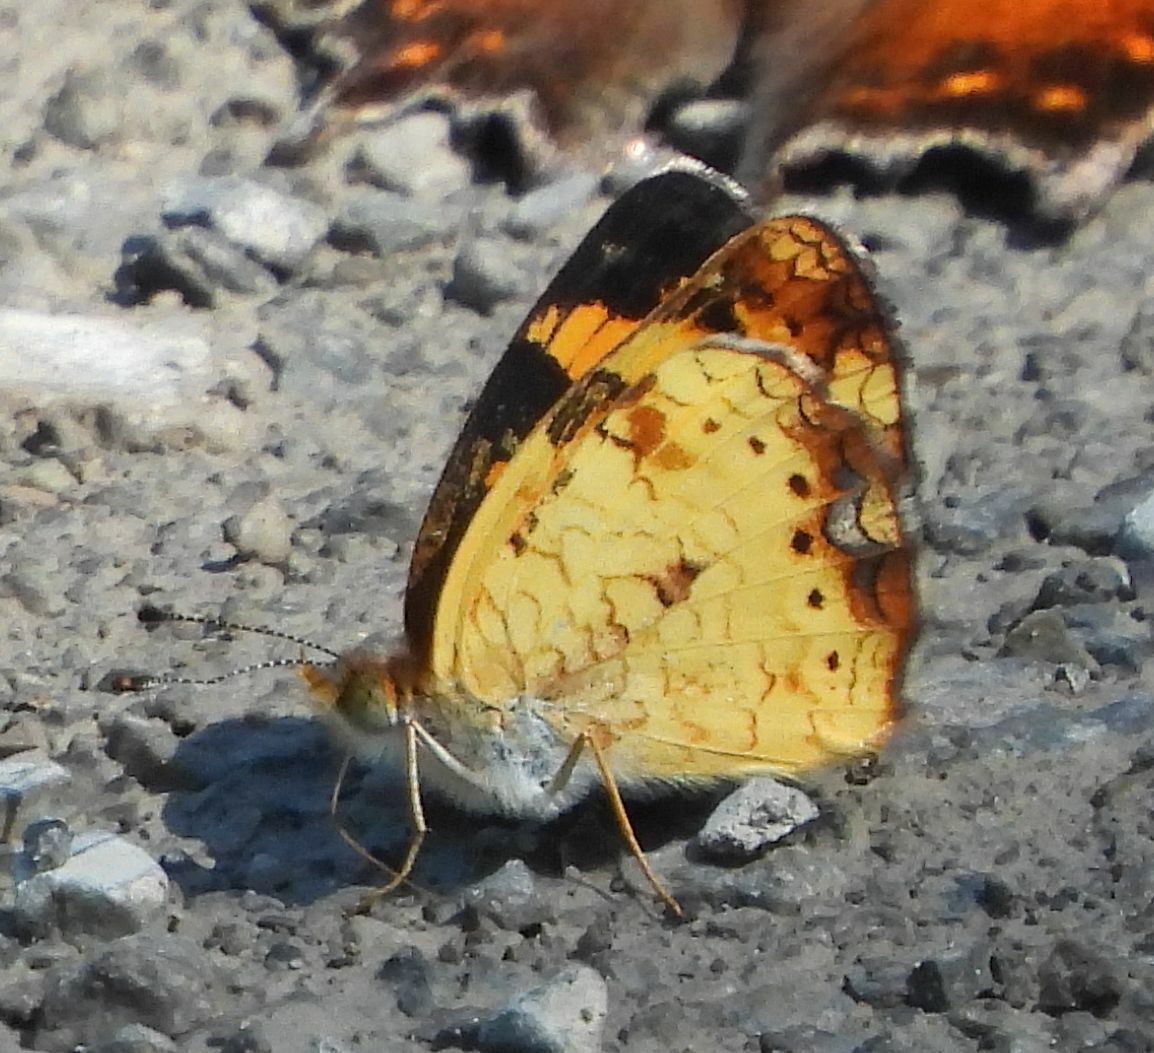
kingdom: Animalia
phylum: Arthropoda
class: Insecta
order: Lepidoptera
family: Nymphalidae
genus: Phyciodes
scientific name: Phyciodes tharos
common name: Pearl crescent
